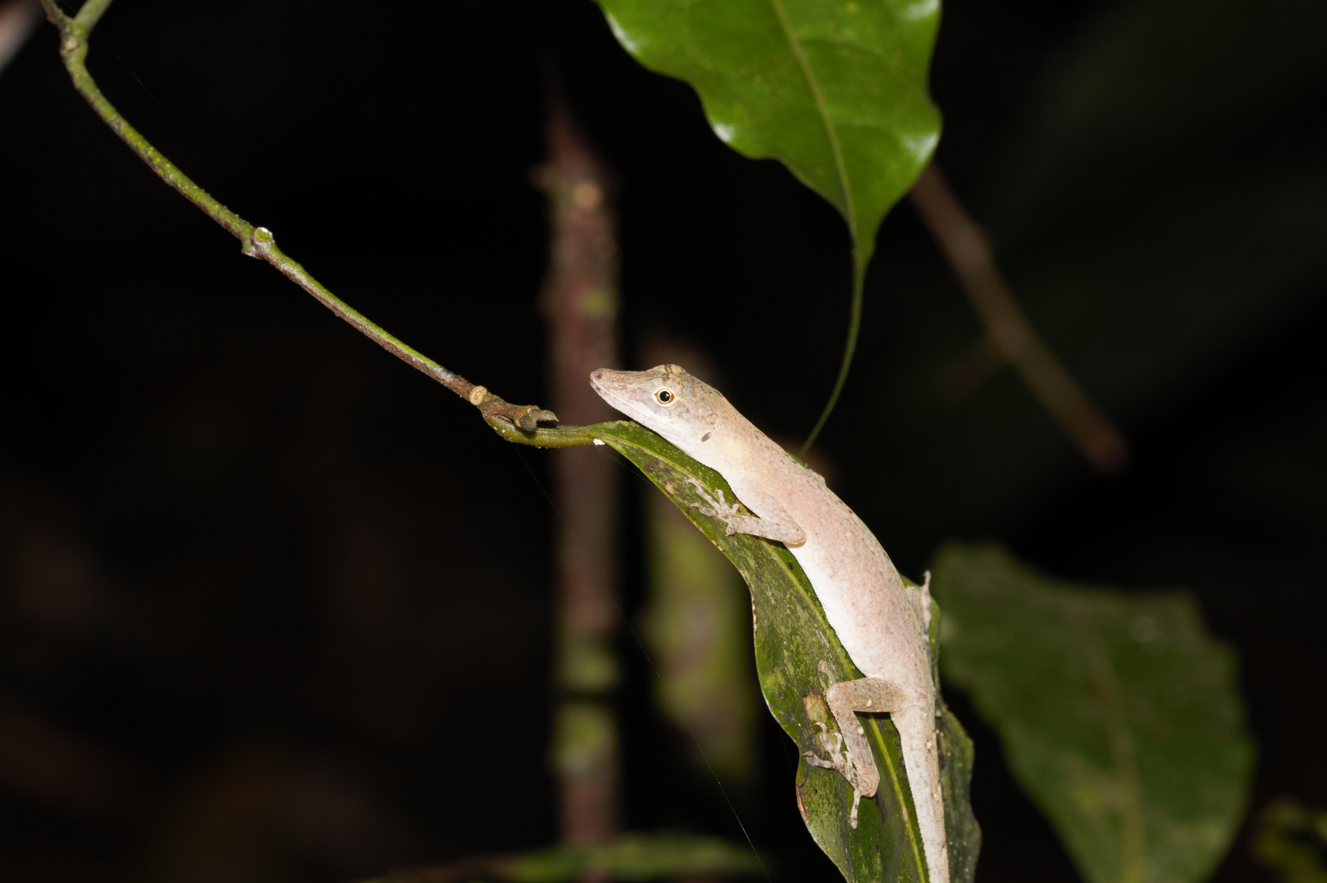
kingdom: Animalia
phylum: Chordata
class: Squamata
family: Dactyloidae
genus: Anolis
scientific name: Anolis fuscoauratus
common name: Brown-eared anole
